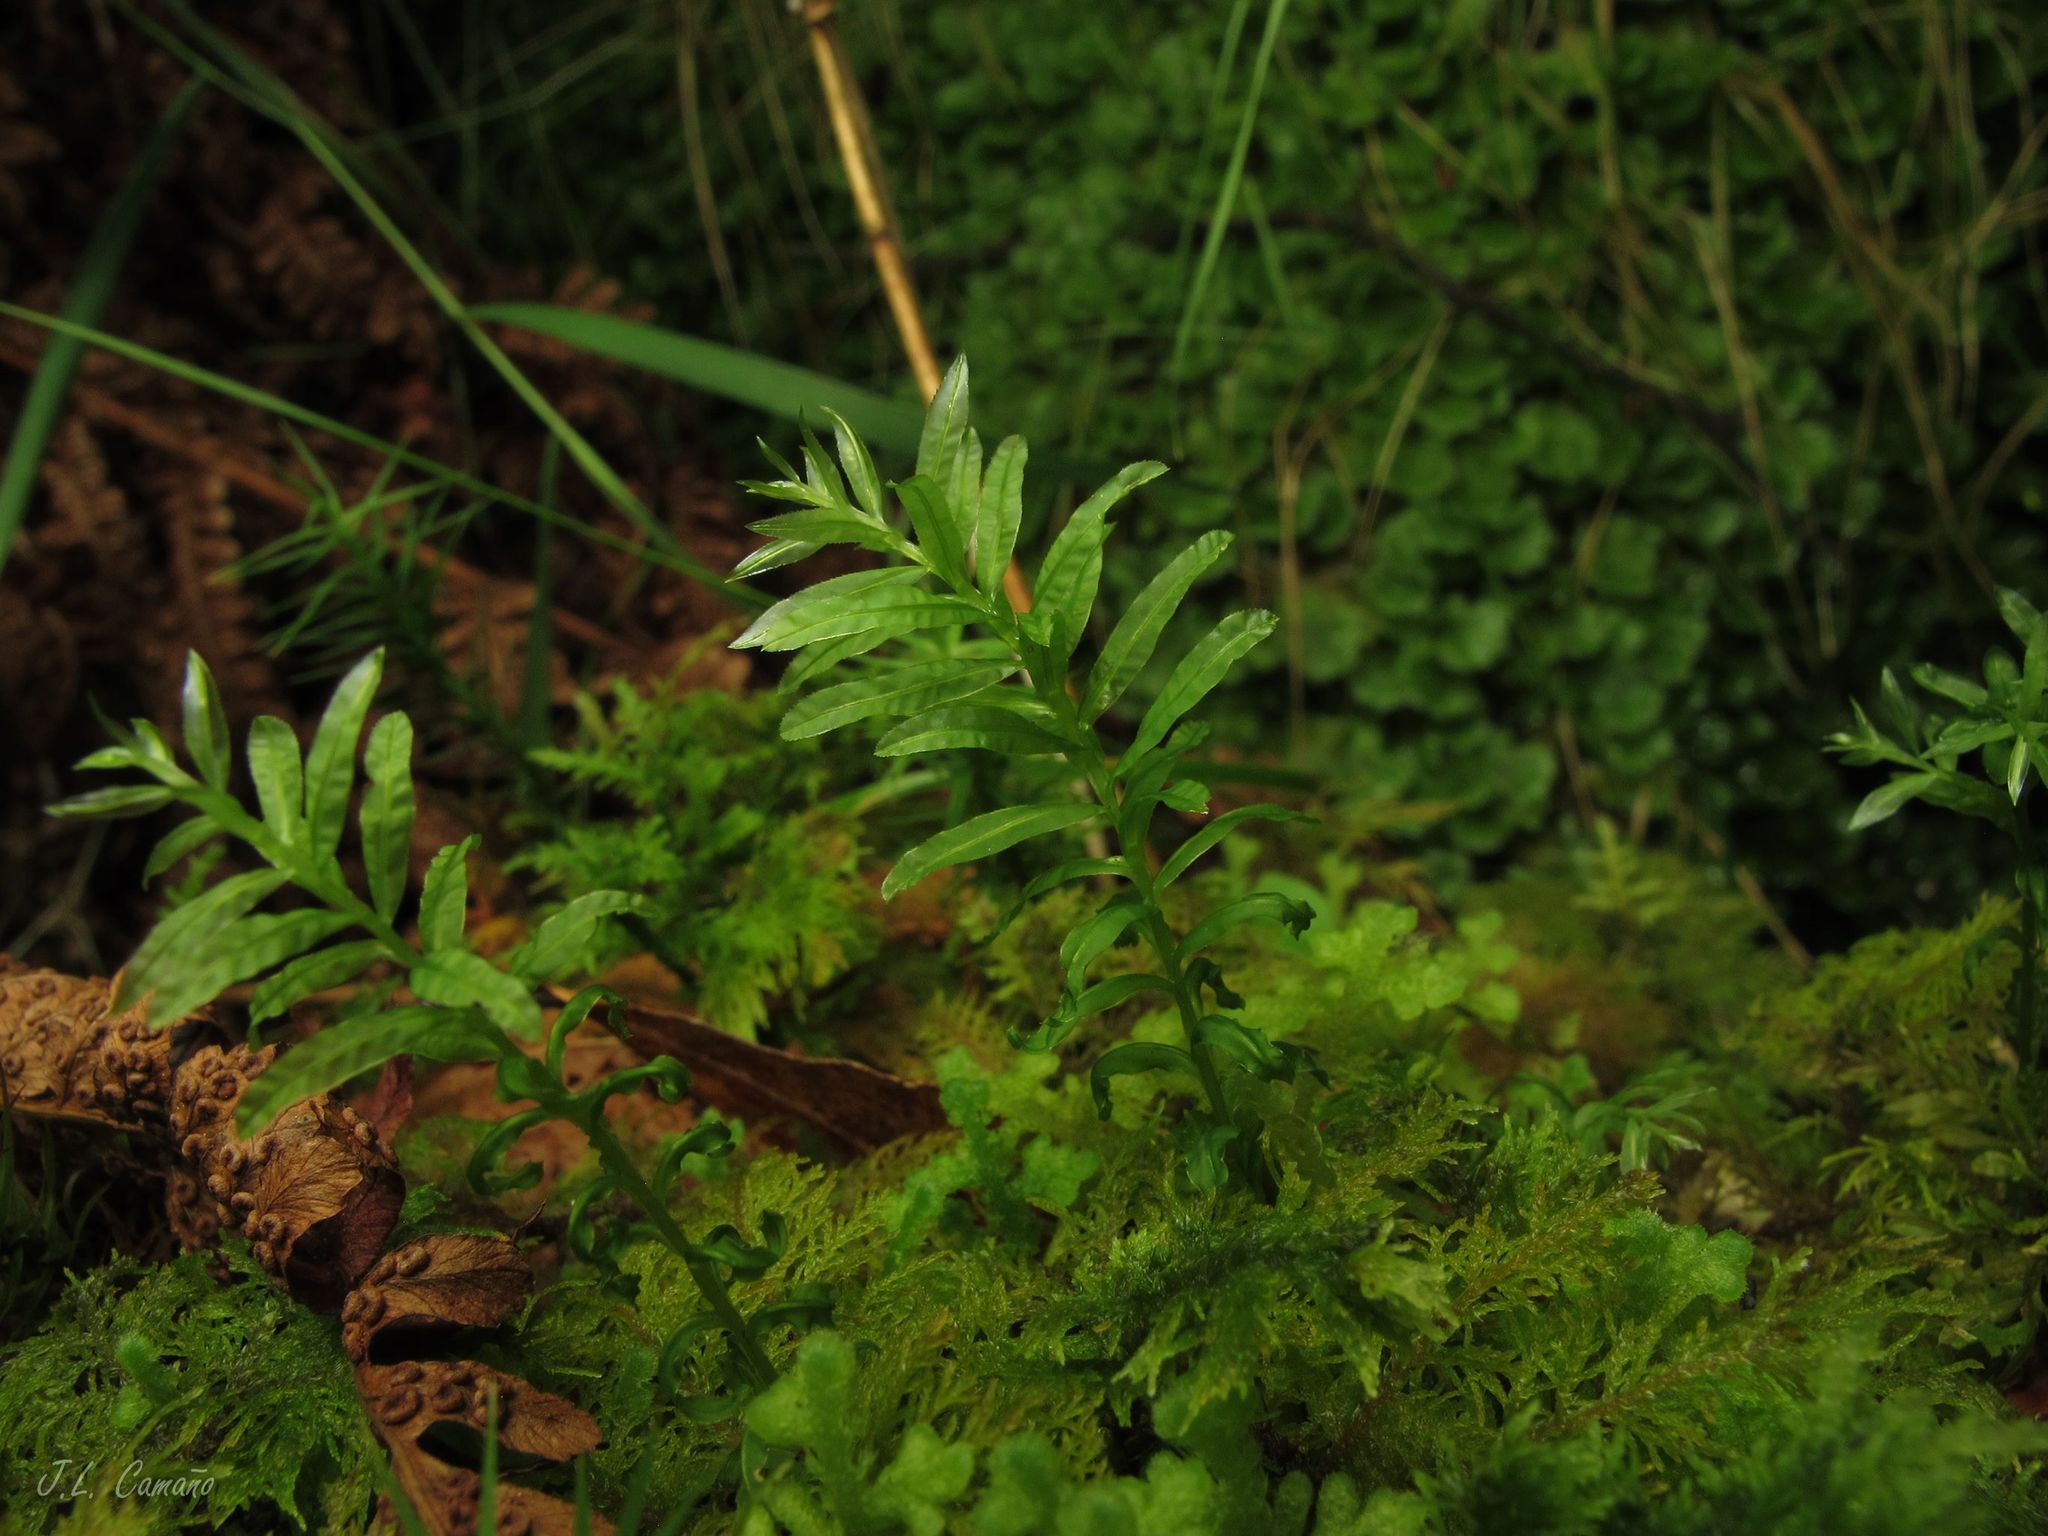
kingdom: Plantae
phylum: Bryophyta
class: Bryopsida
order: Bryales
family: Mniaceae
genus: Plagiomnium
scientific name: Plagiomnium undulatum
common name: Hart's-tongue thyme-moss
